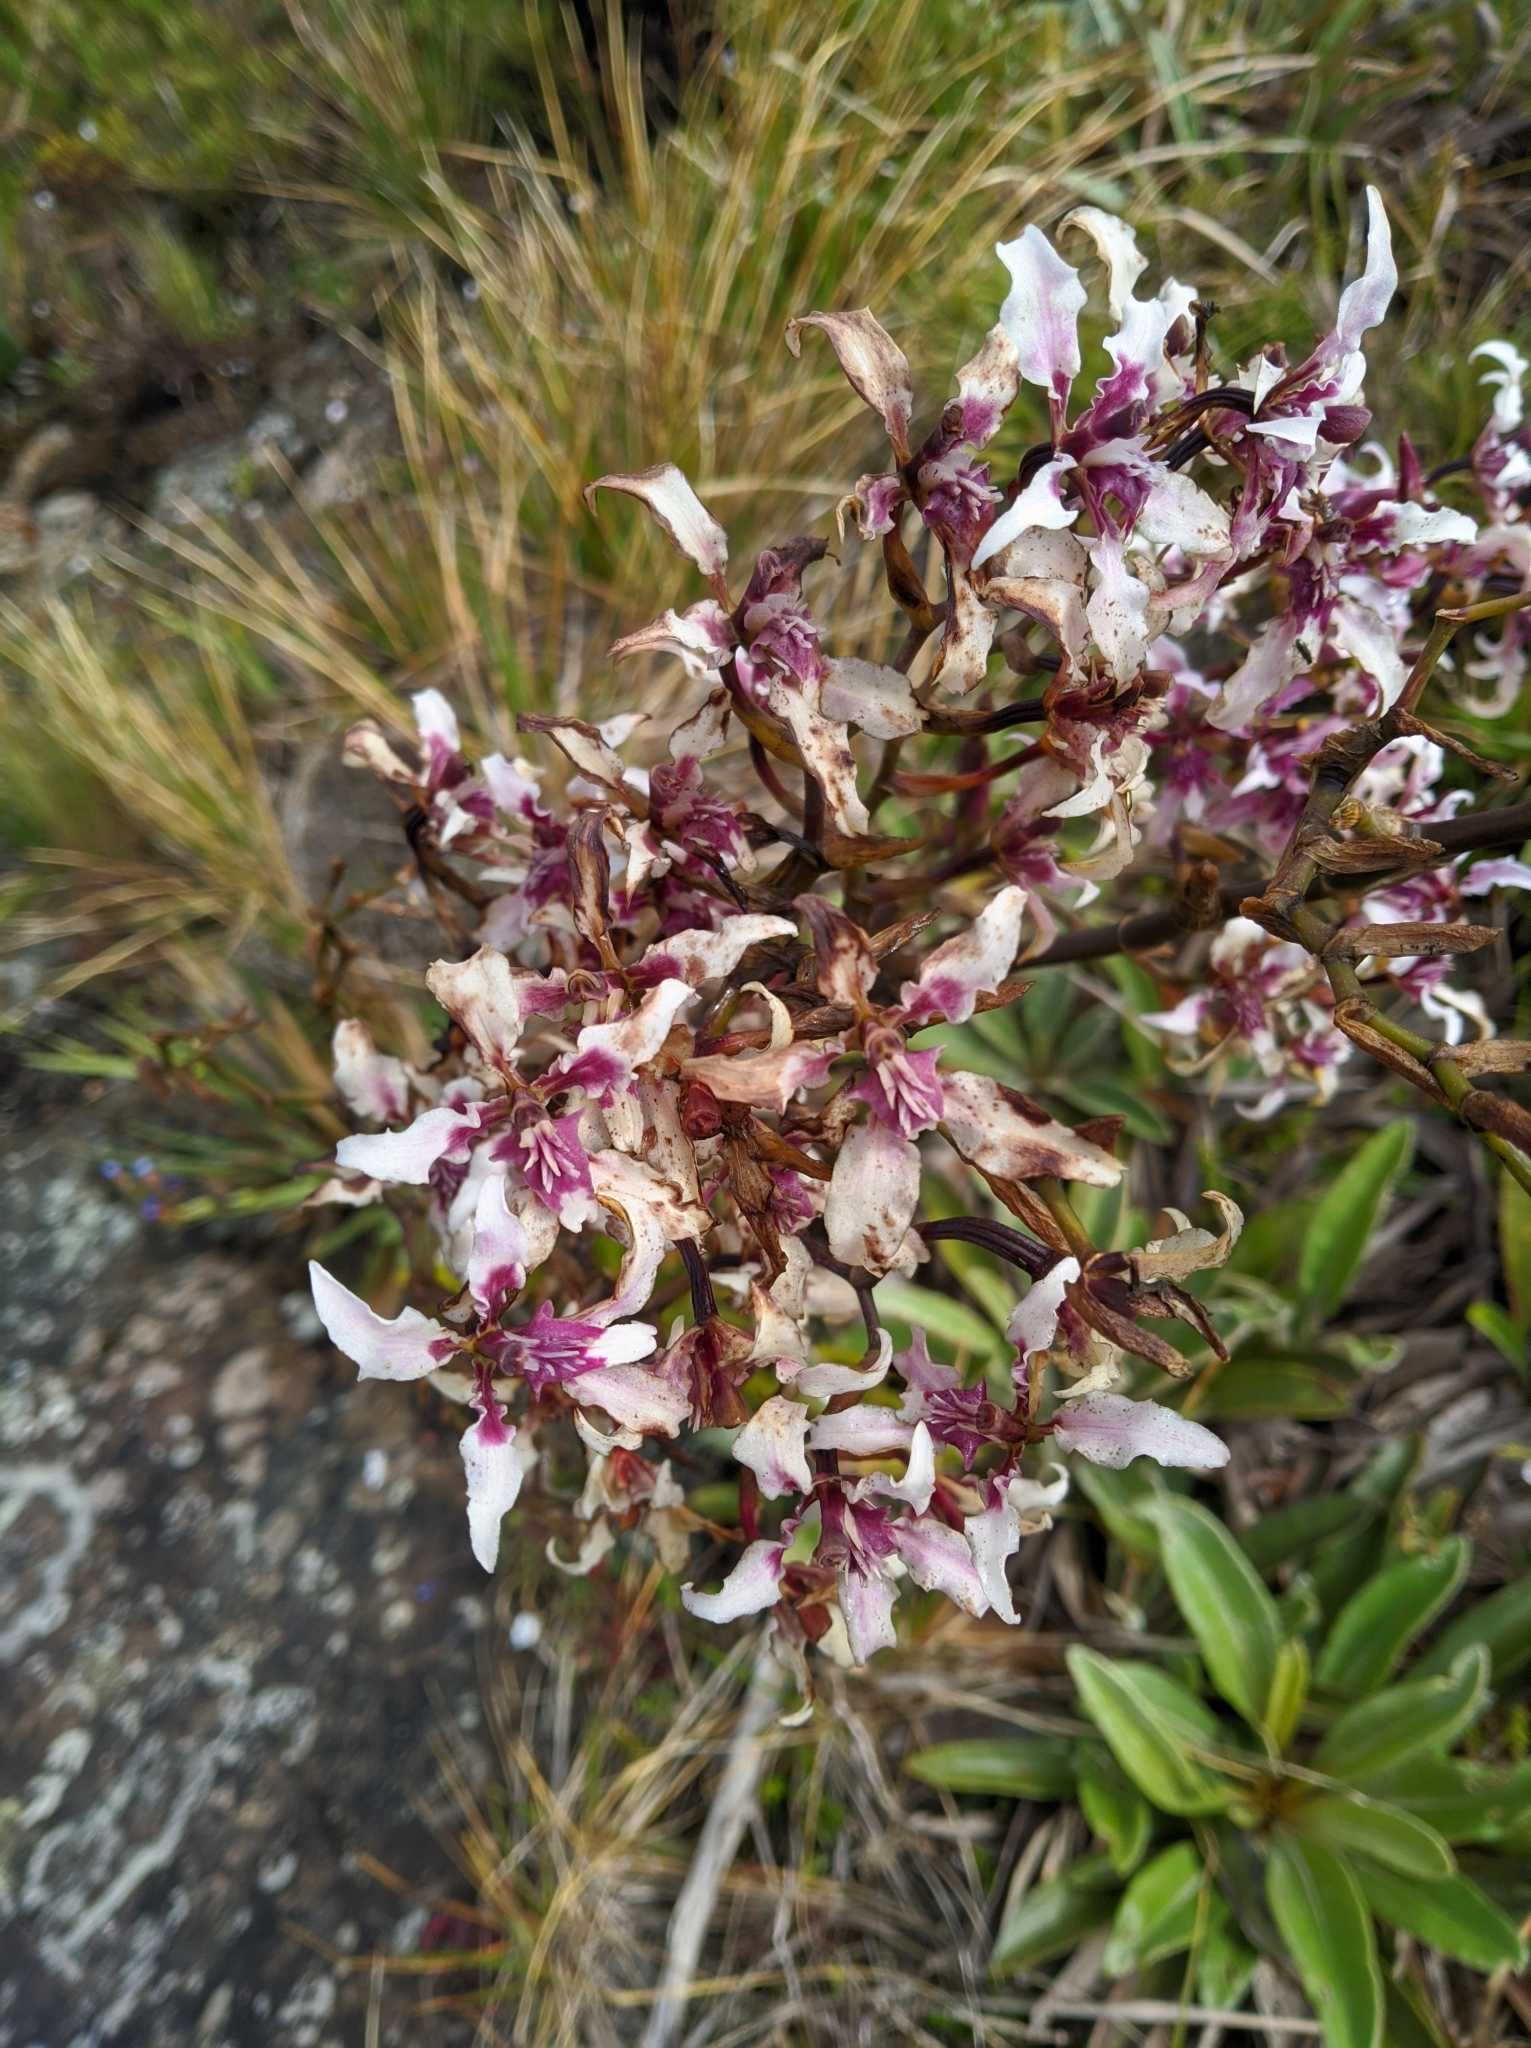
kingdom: Plantae
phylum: Tracheophyta
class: Liliopsida
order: Asparagales
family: Orchidaceae
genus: Cyrtochilum
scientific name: Cyrtochilum ramosissimum
